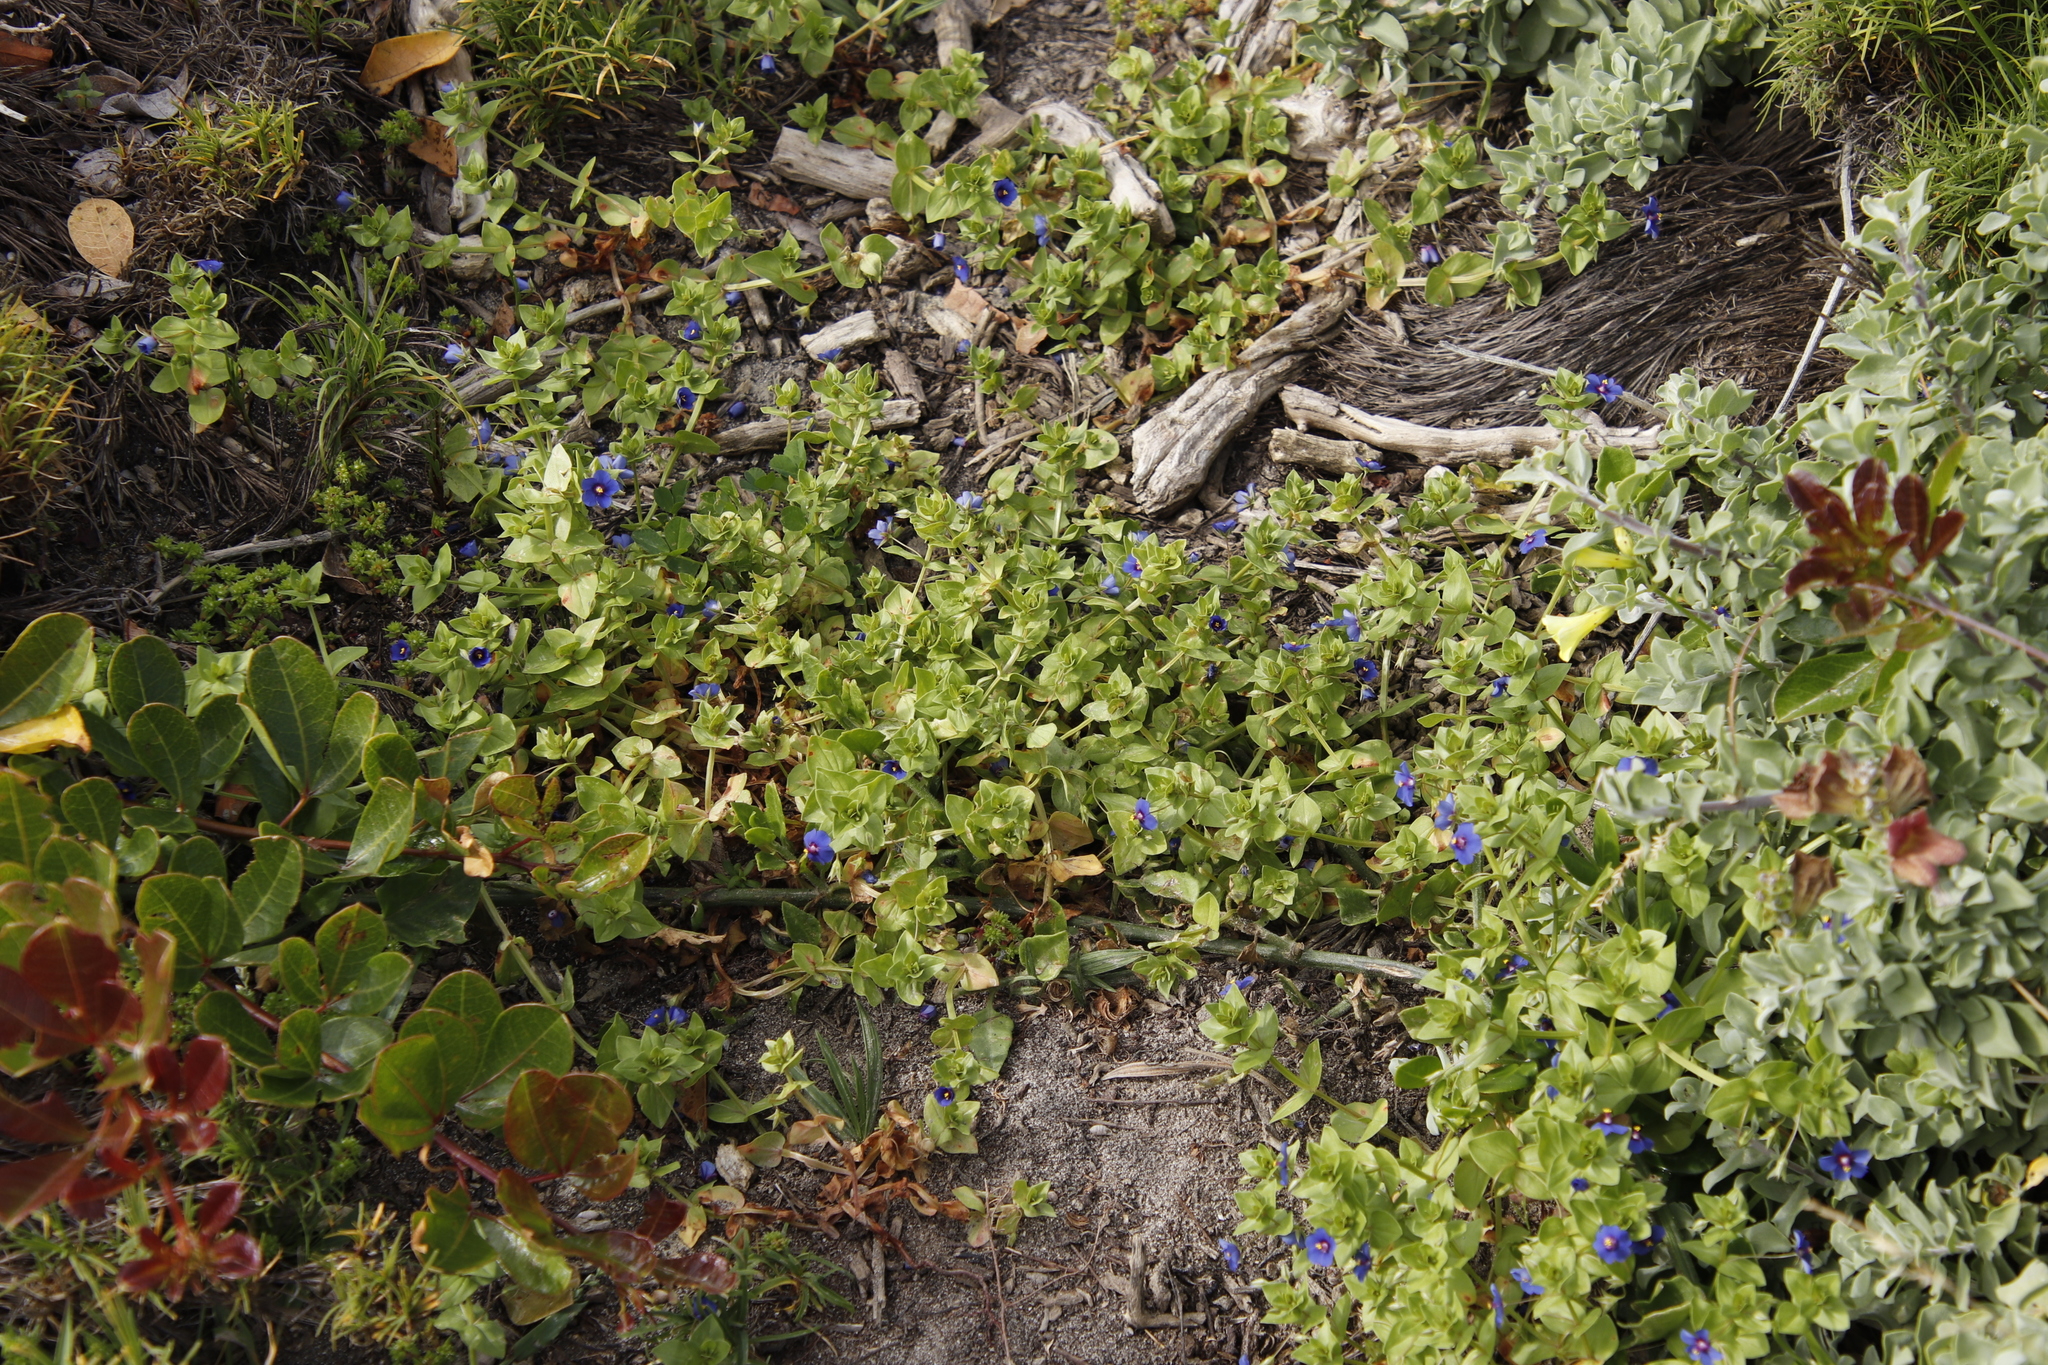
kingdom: Plantae
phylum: Tracheophyta
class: Magnoliopsida
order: Ericales
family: Primulaceae
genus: Lysimachia
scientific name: Lysimachia loeflingii
